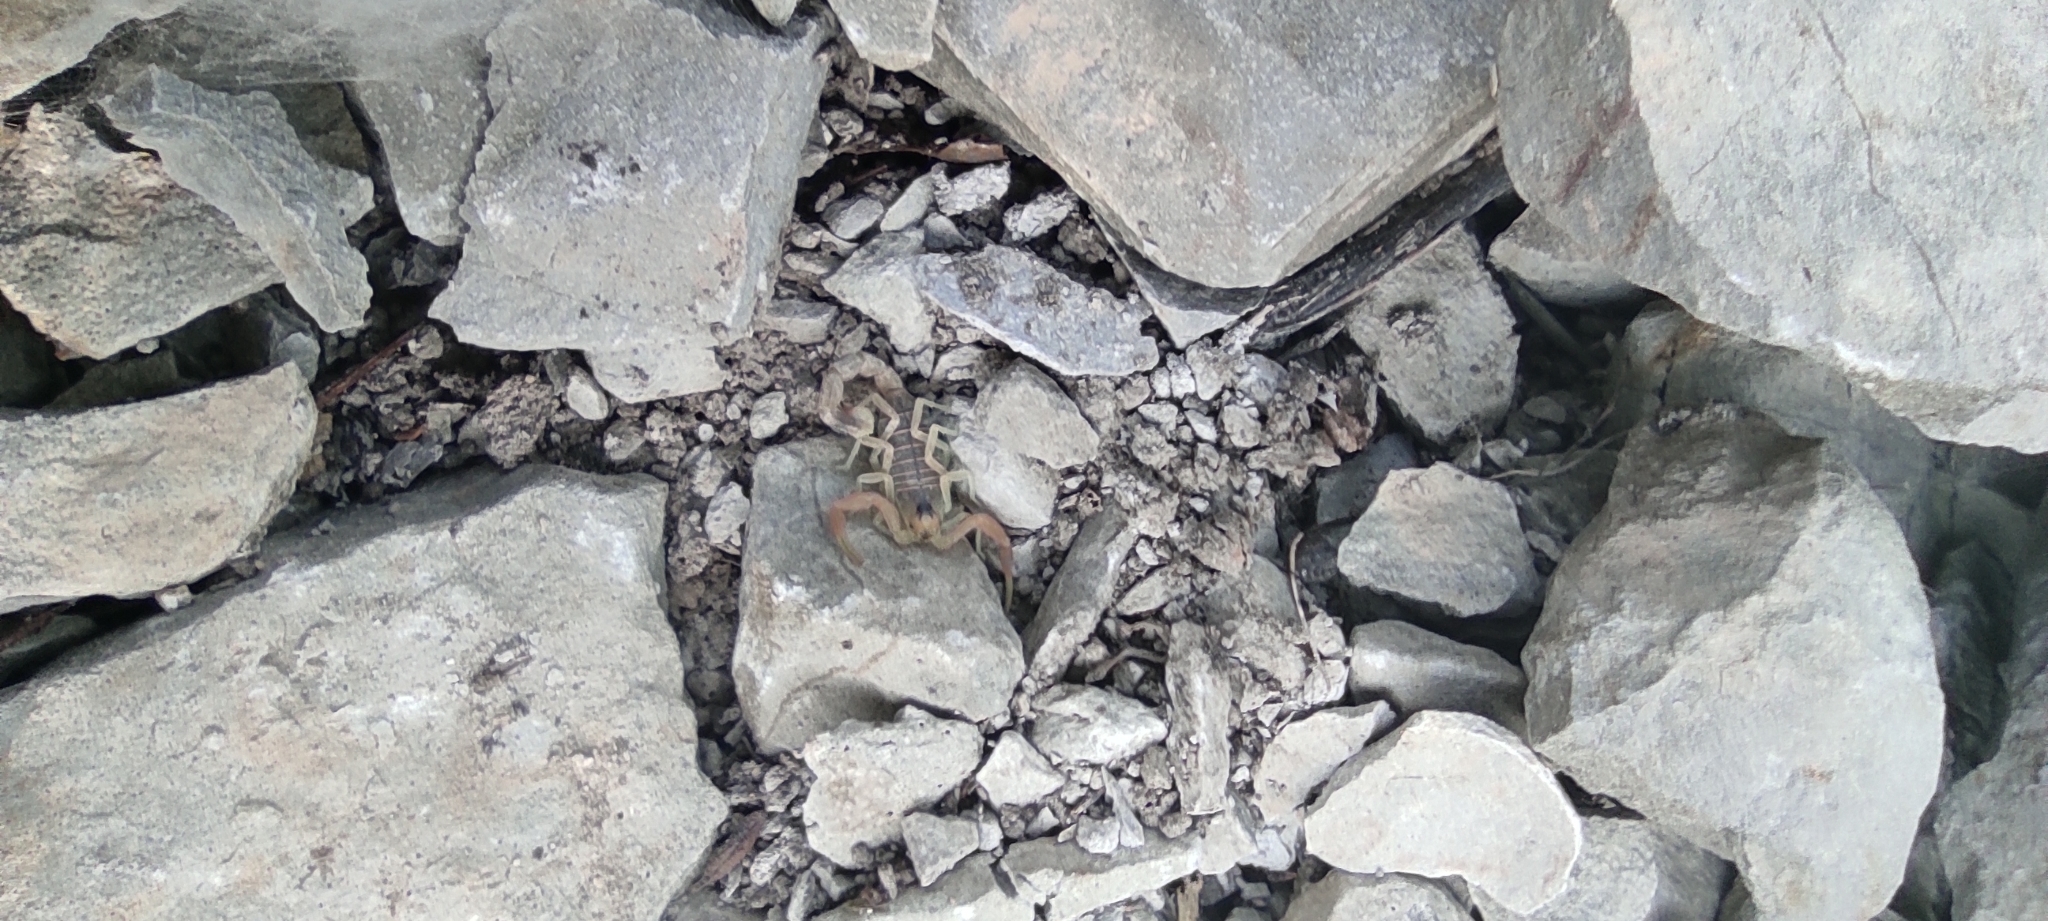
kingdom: Animalia
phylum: Arthropoda
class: Arachnida
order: Scorpiones
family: Buthidae
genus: Buthus
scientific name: Buthus occitanus
